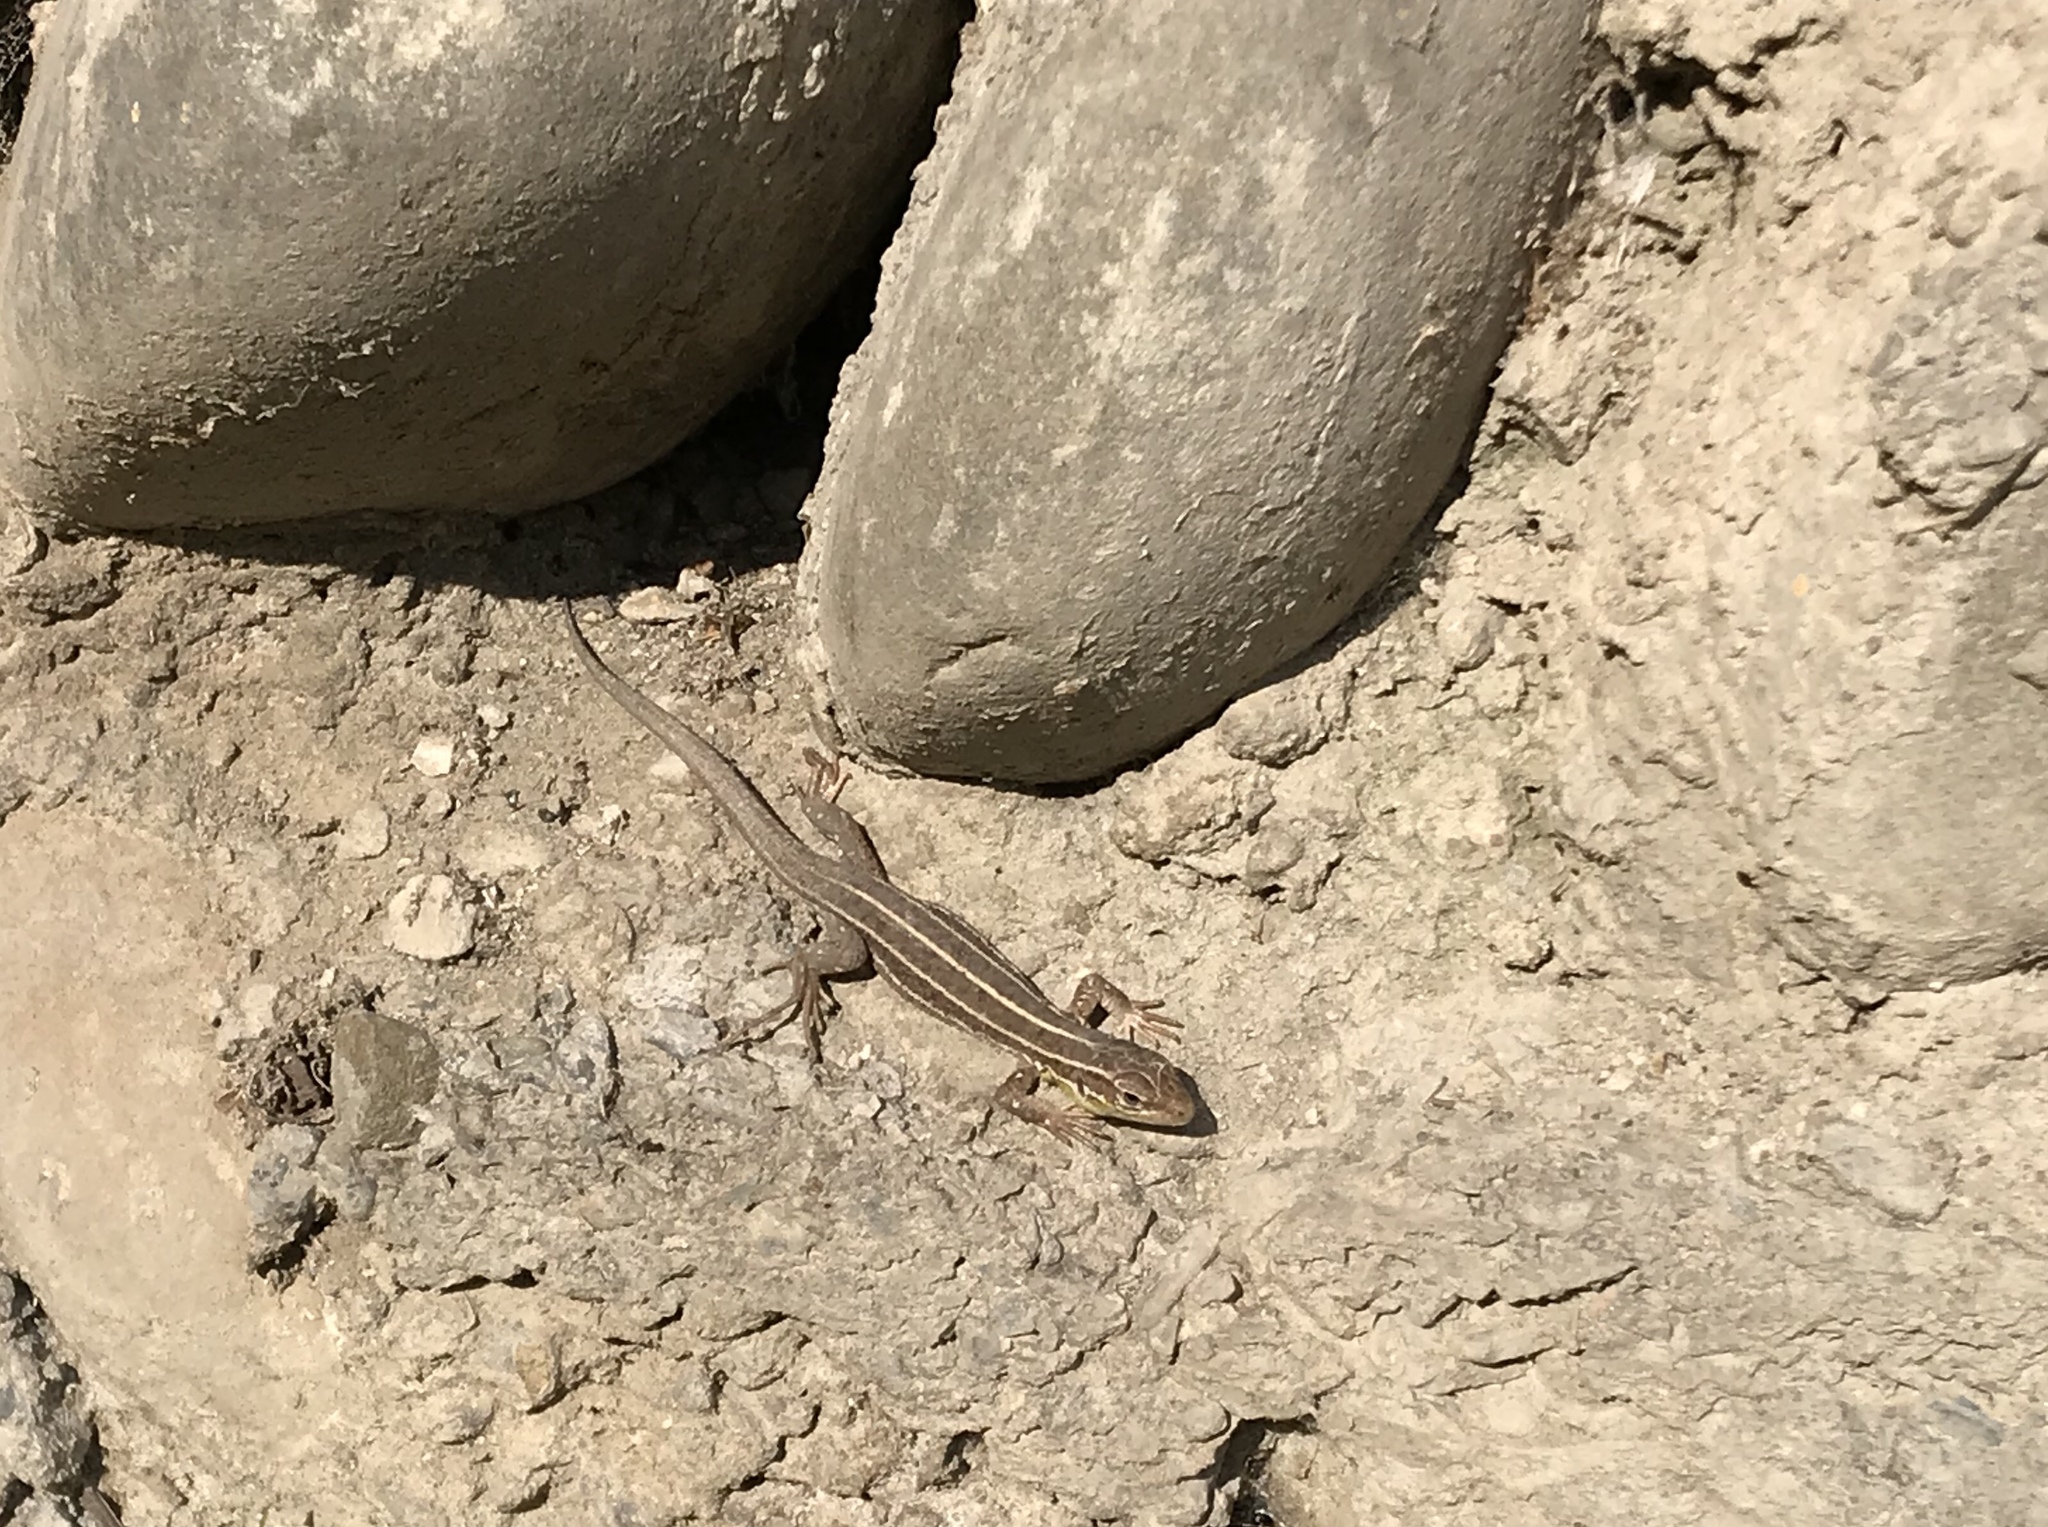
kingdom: Animalia
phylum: Chordata
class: Squamata
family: Lacertidae
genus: Lacerta
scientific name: Lacerta
